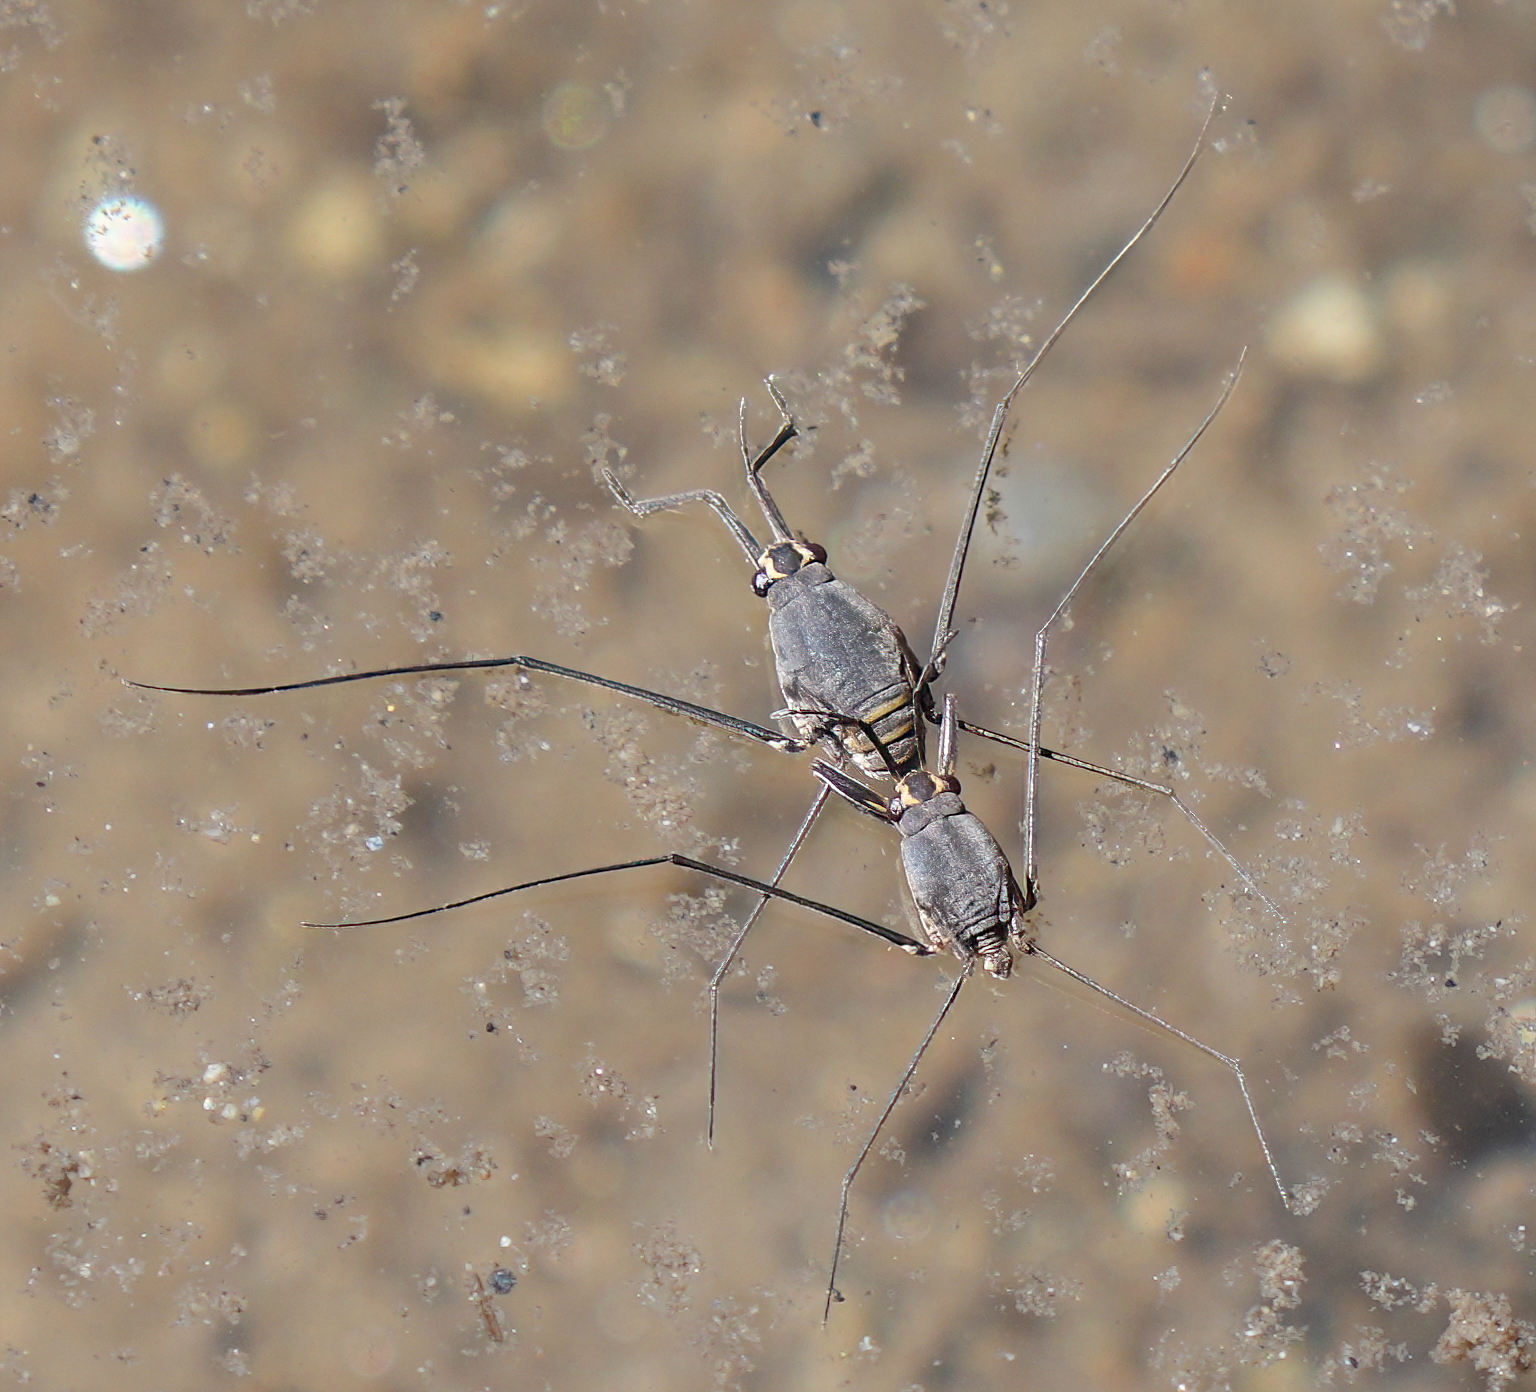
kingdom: Animalia
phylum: Arthropoda
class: Insecta
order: Hemiptera
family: Gerridae
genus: Halobates
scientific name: Halobates
